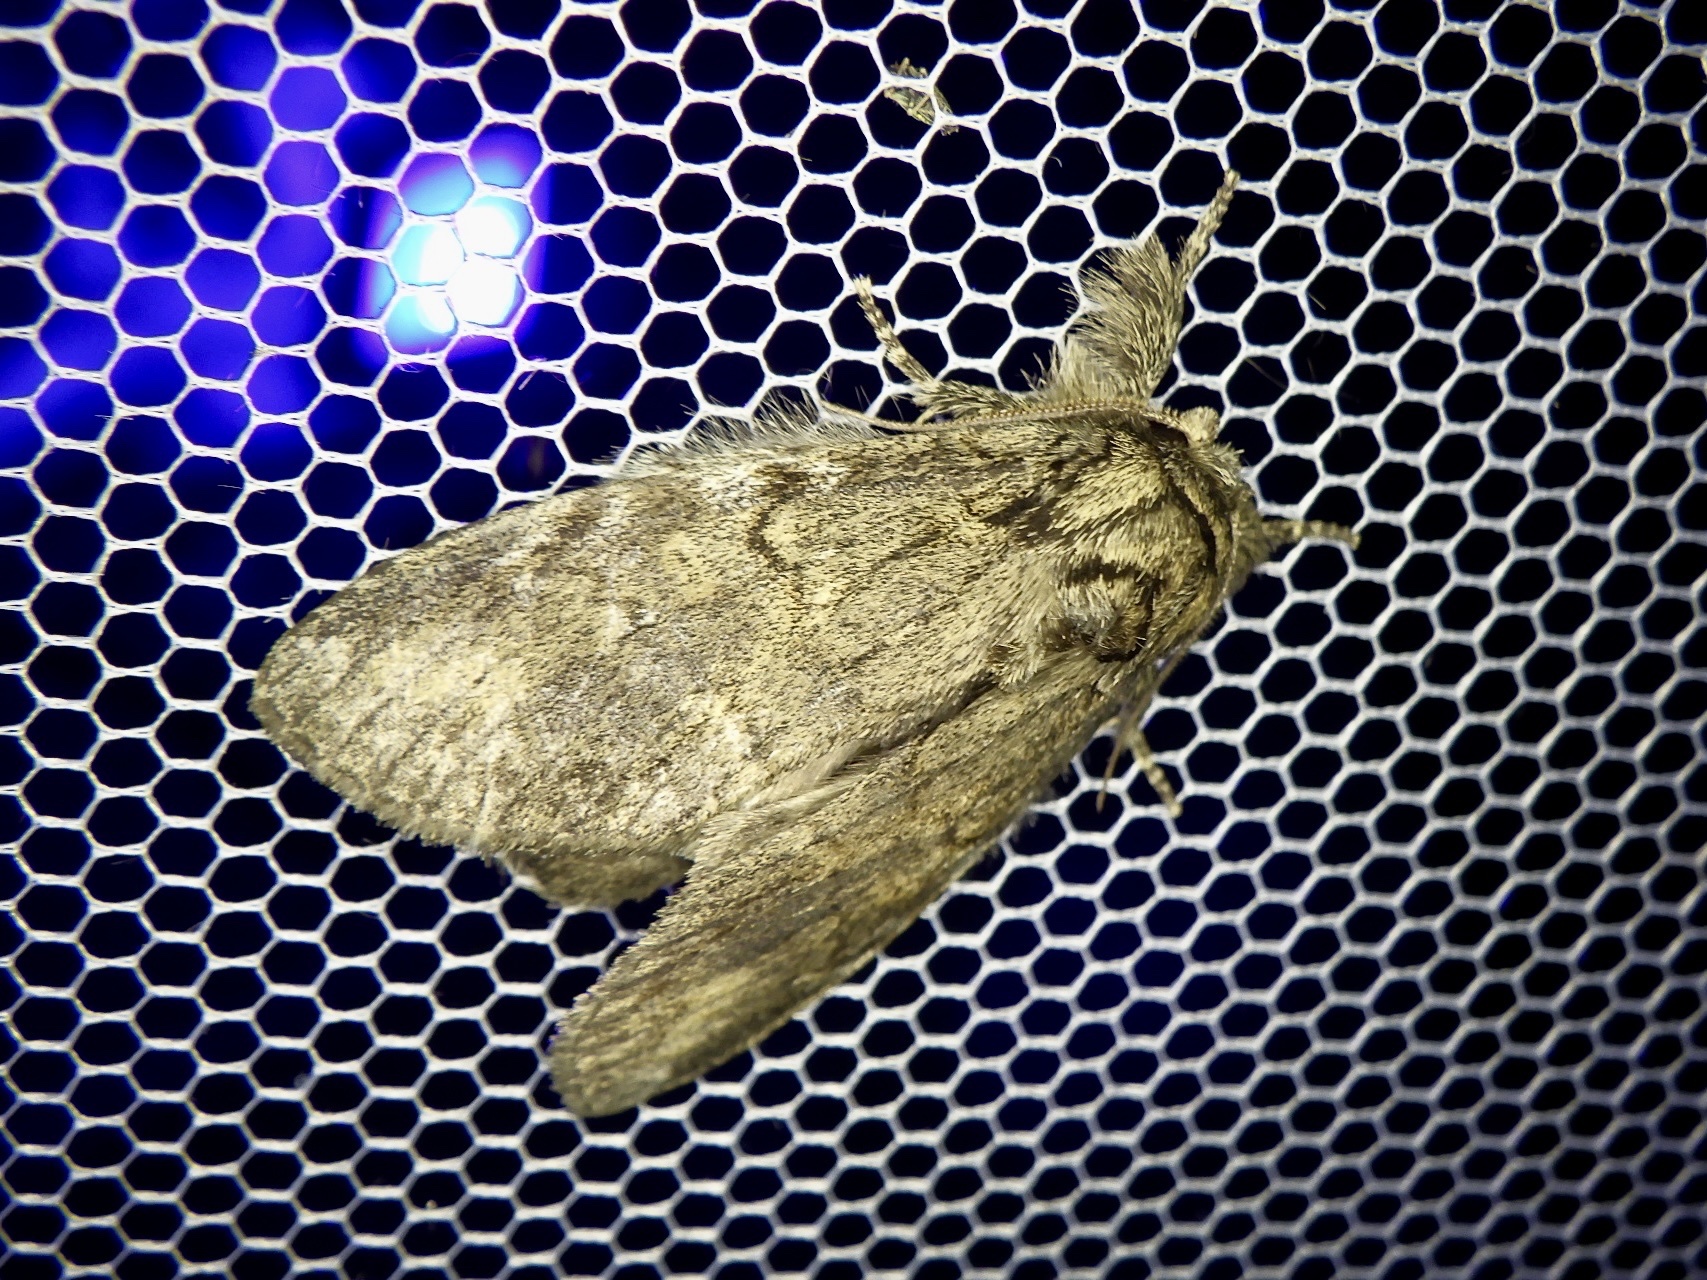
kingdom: Animalia
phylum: Arthropoda
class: Insecta
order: Lepidoptera
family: Notodontidae
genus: Peridea
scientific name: Peridea gigantea
